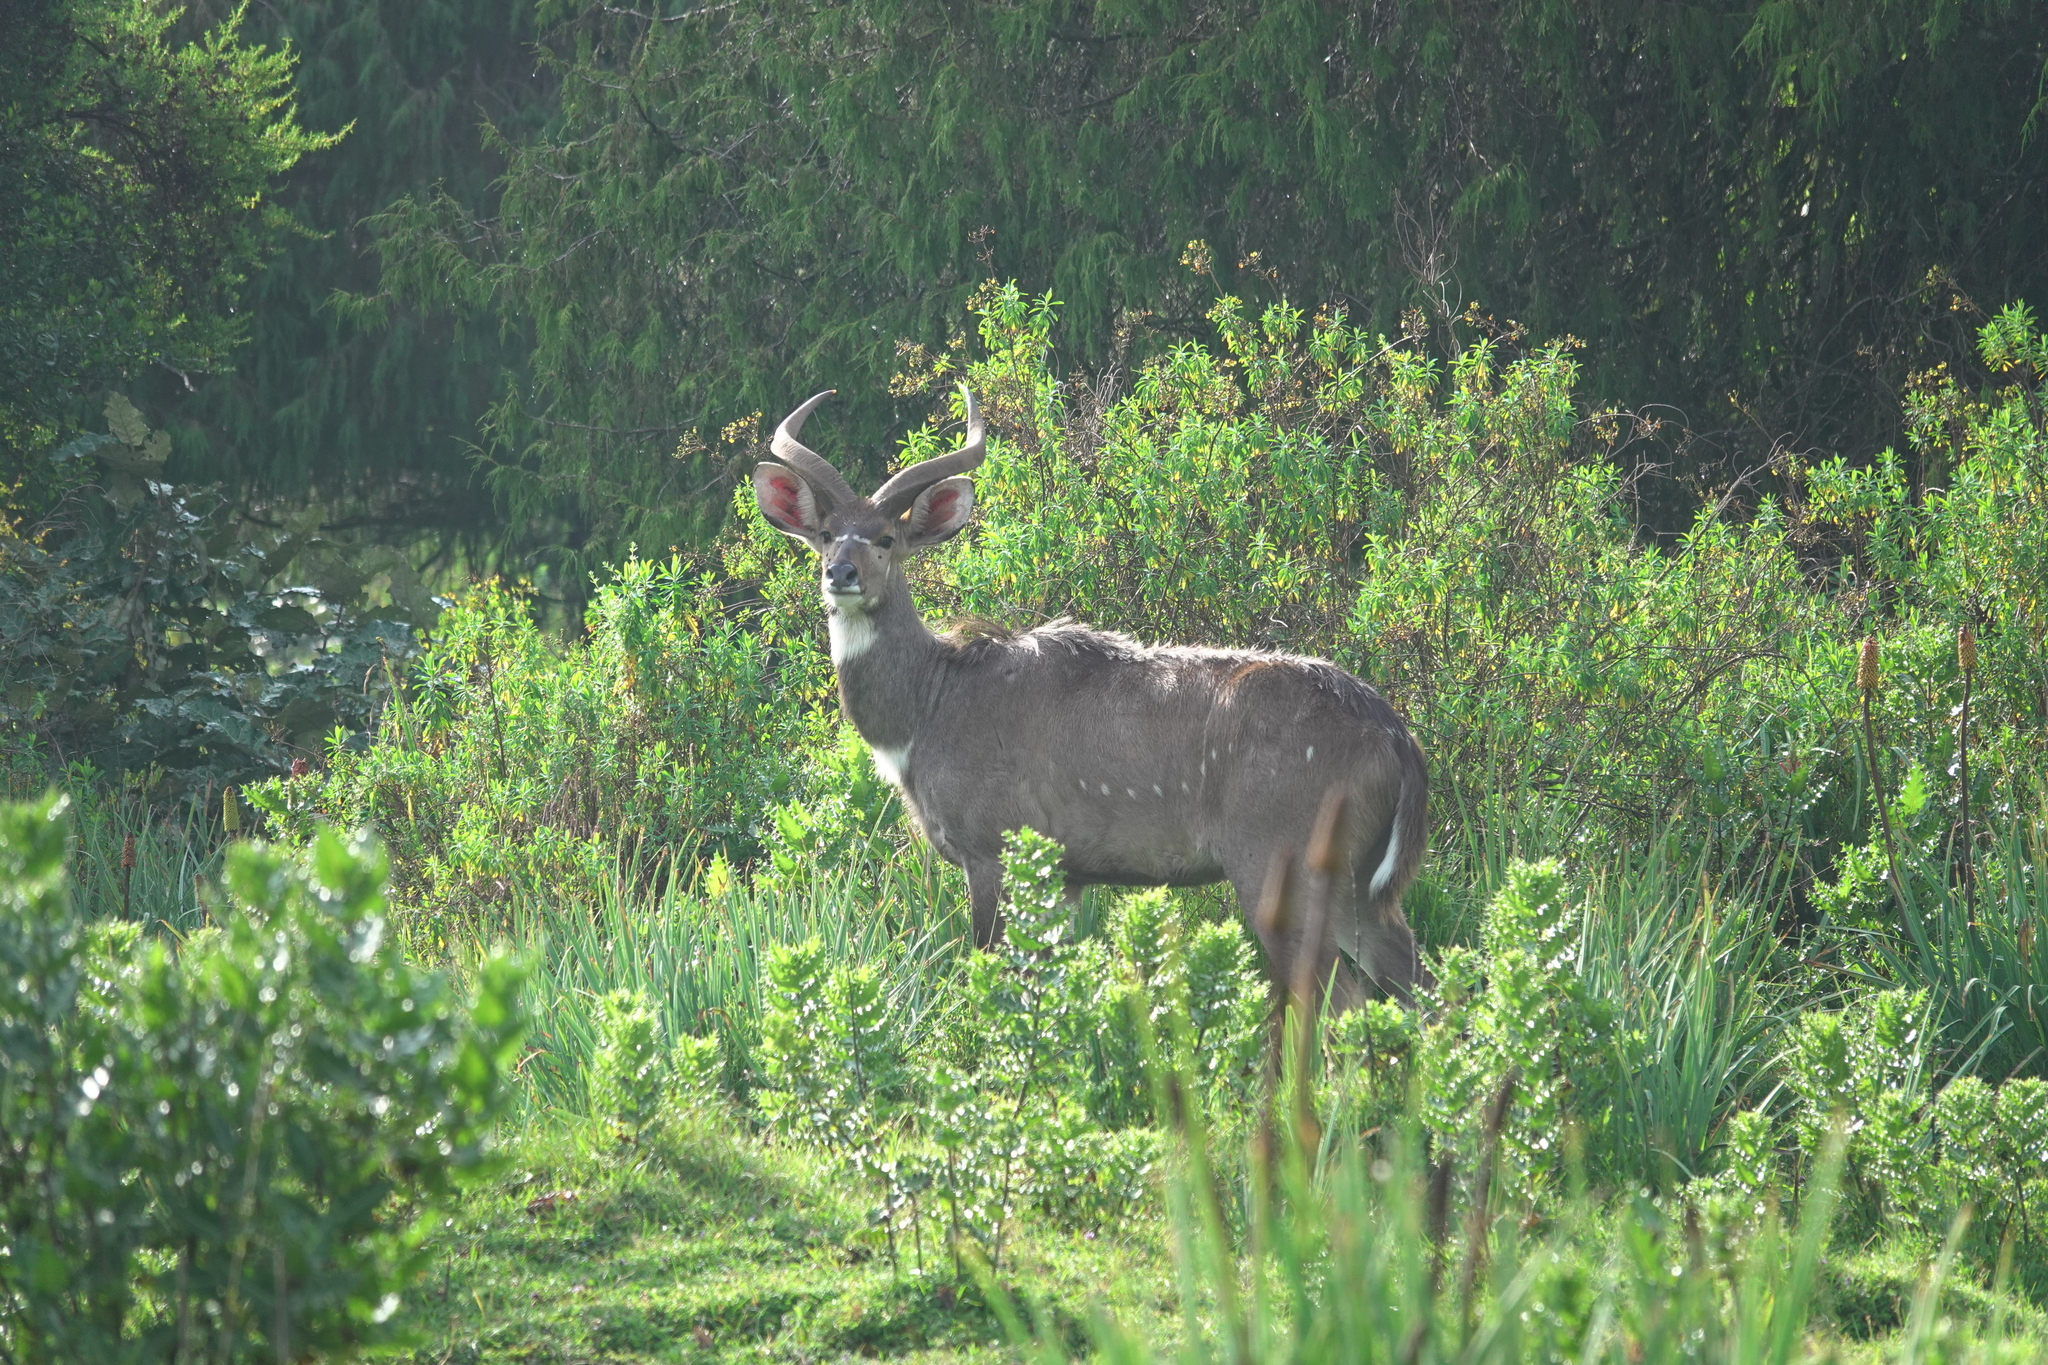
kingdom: Animalia
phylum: Chordata
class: Mammalia
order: Artiodactyla
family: Bovidae
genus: Tragelaphus
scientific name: Tragelaphus buxtoni
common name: Mountain nyala
